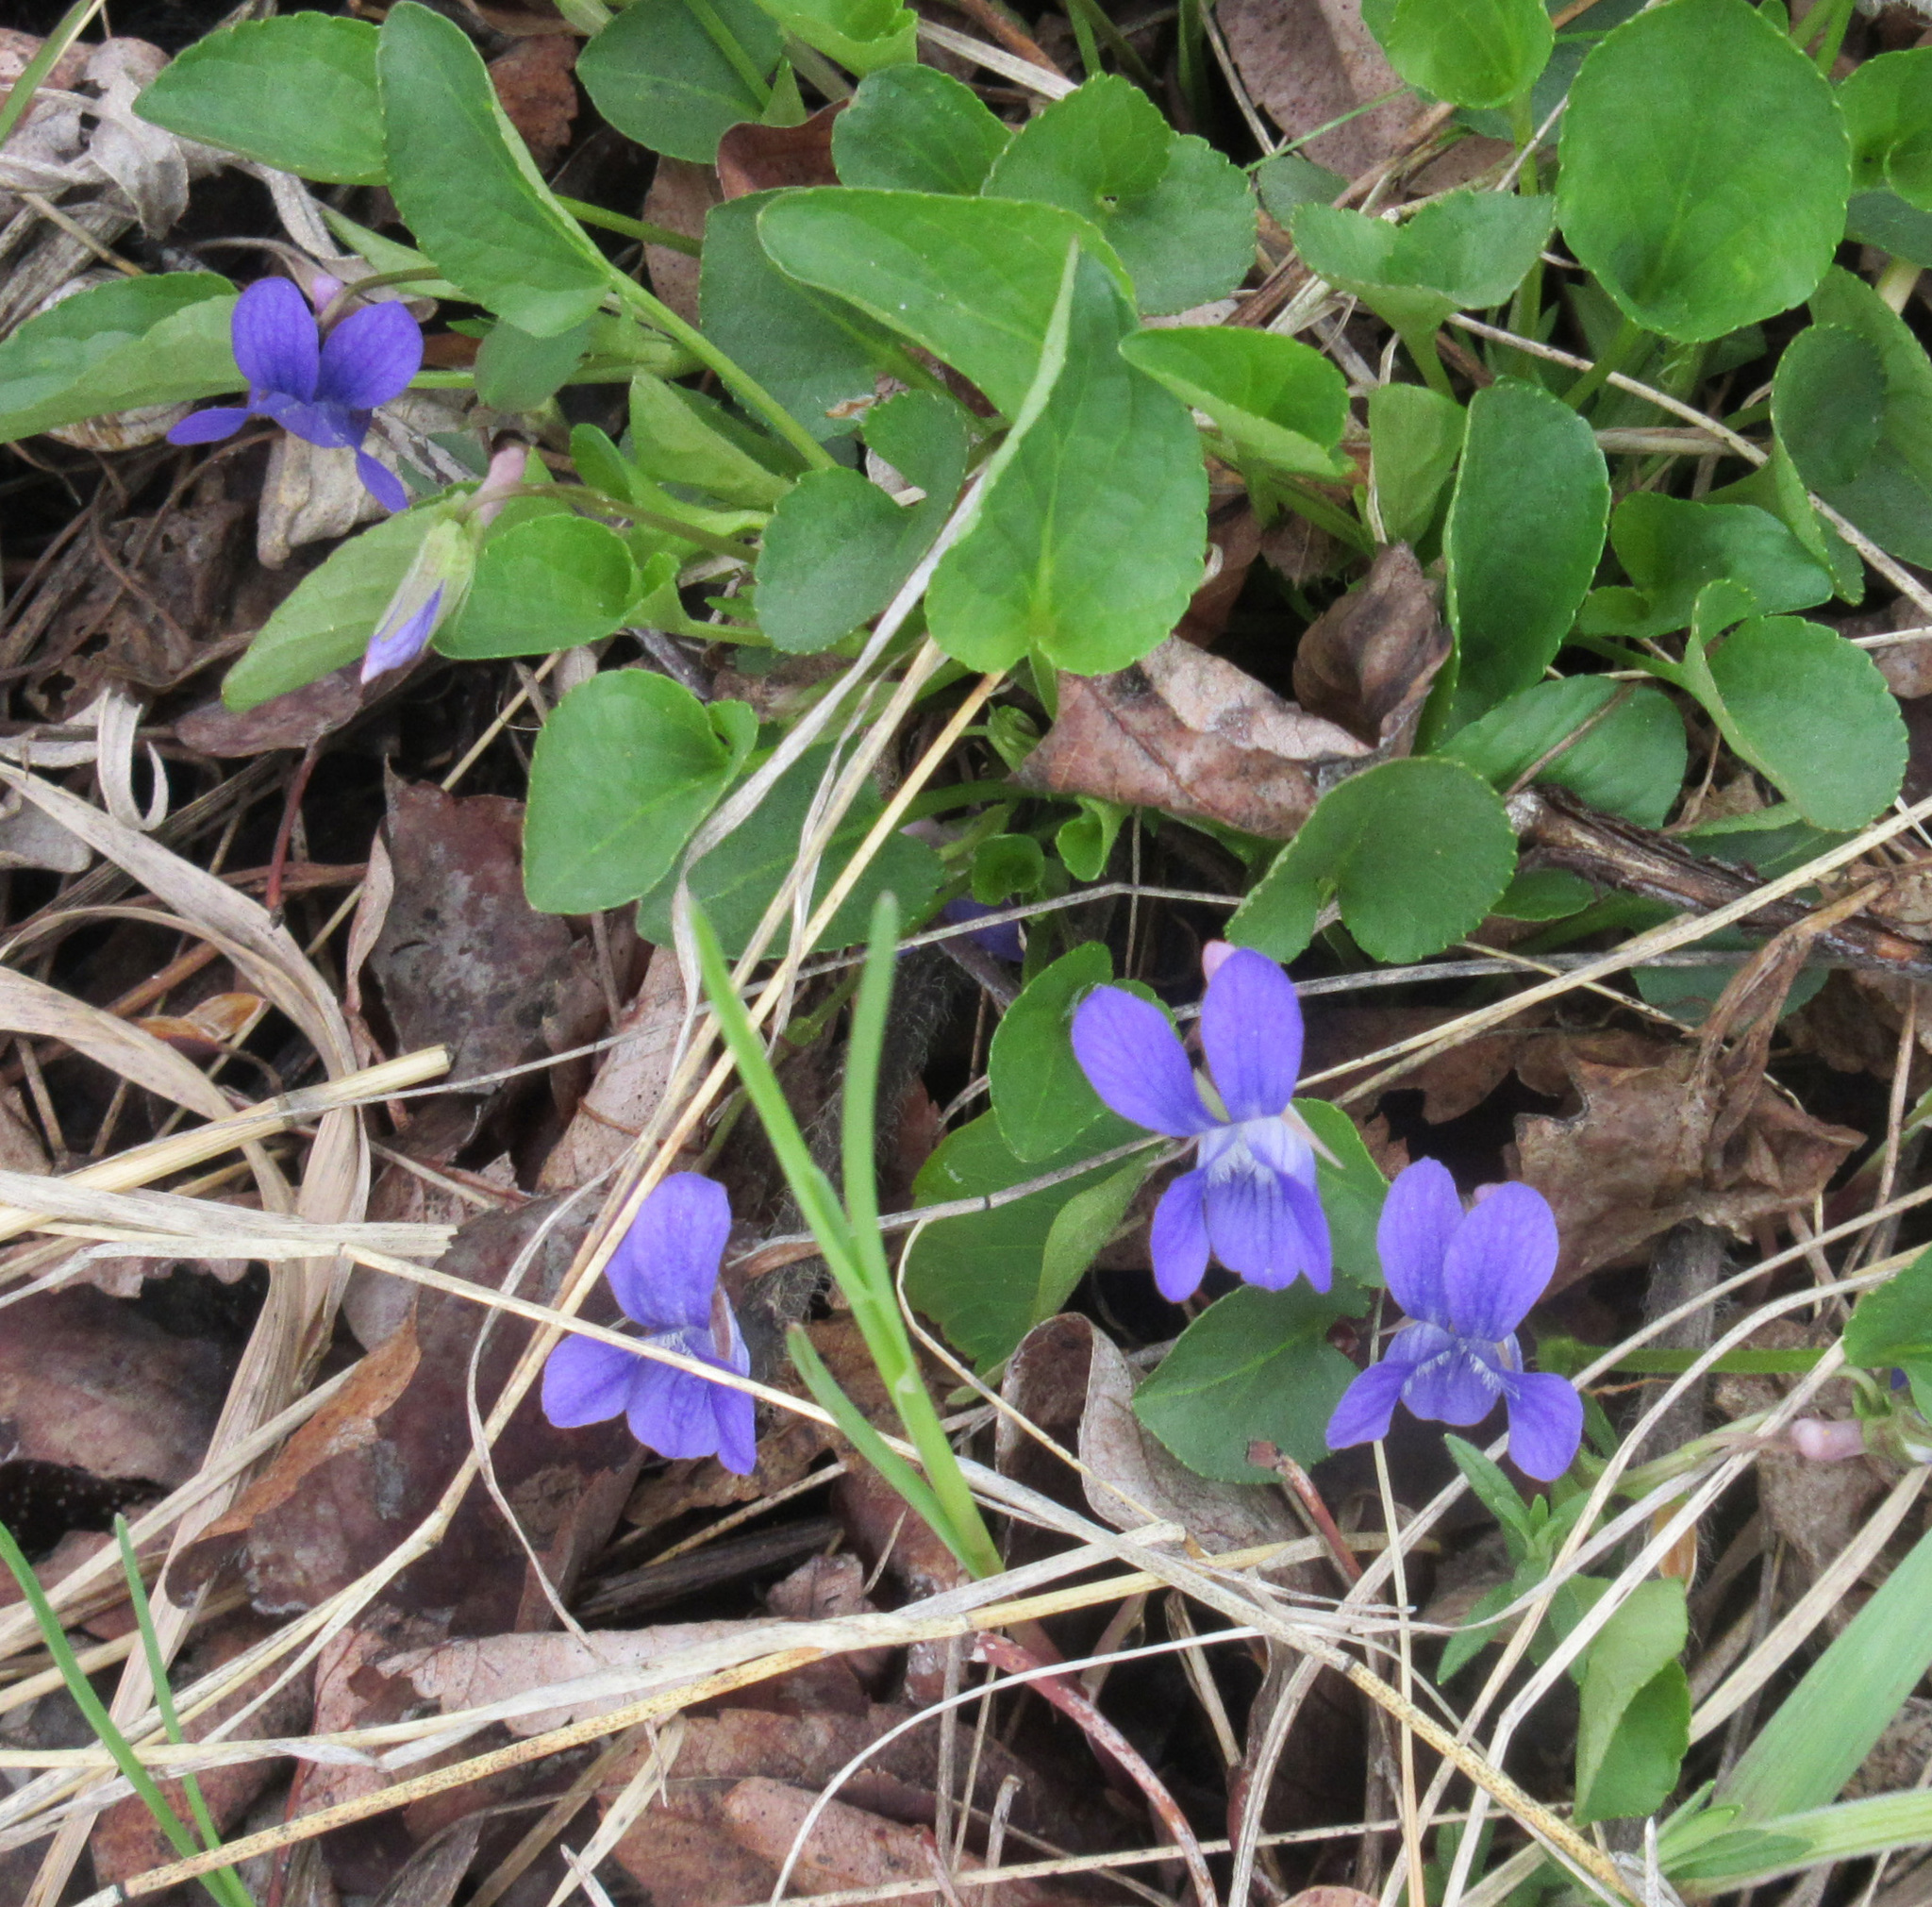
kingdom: Plantae
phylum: Tracheophyta
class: Magnoliopsida
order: Malpighiales
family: Violaceae
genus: Viola
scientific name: Viola adunca
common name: Sand violet
